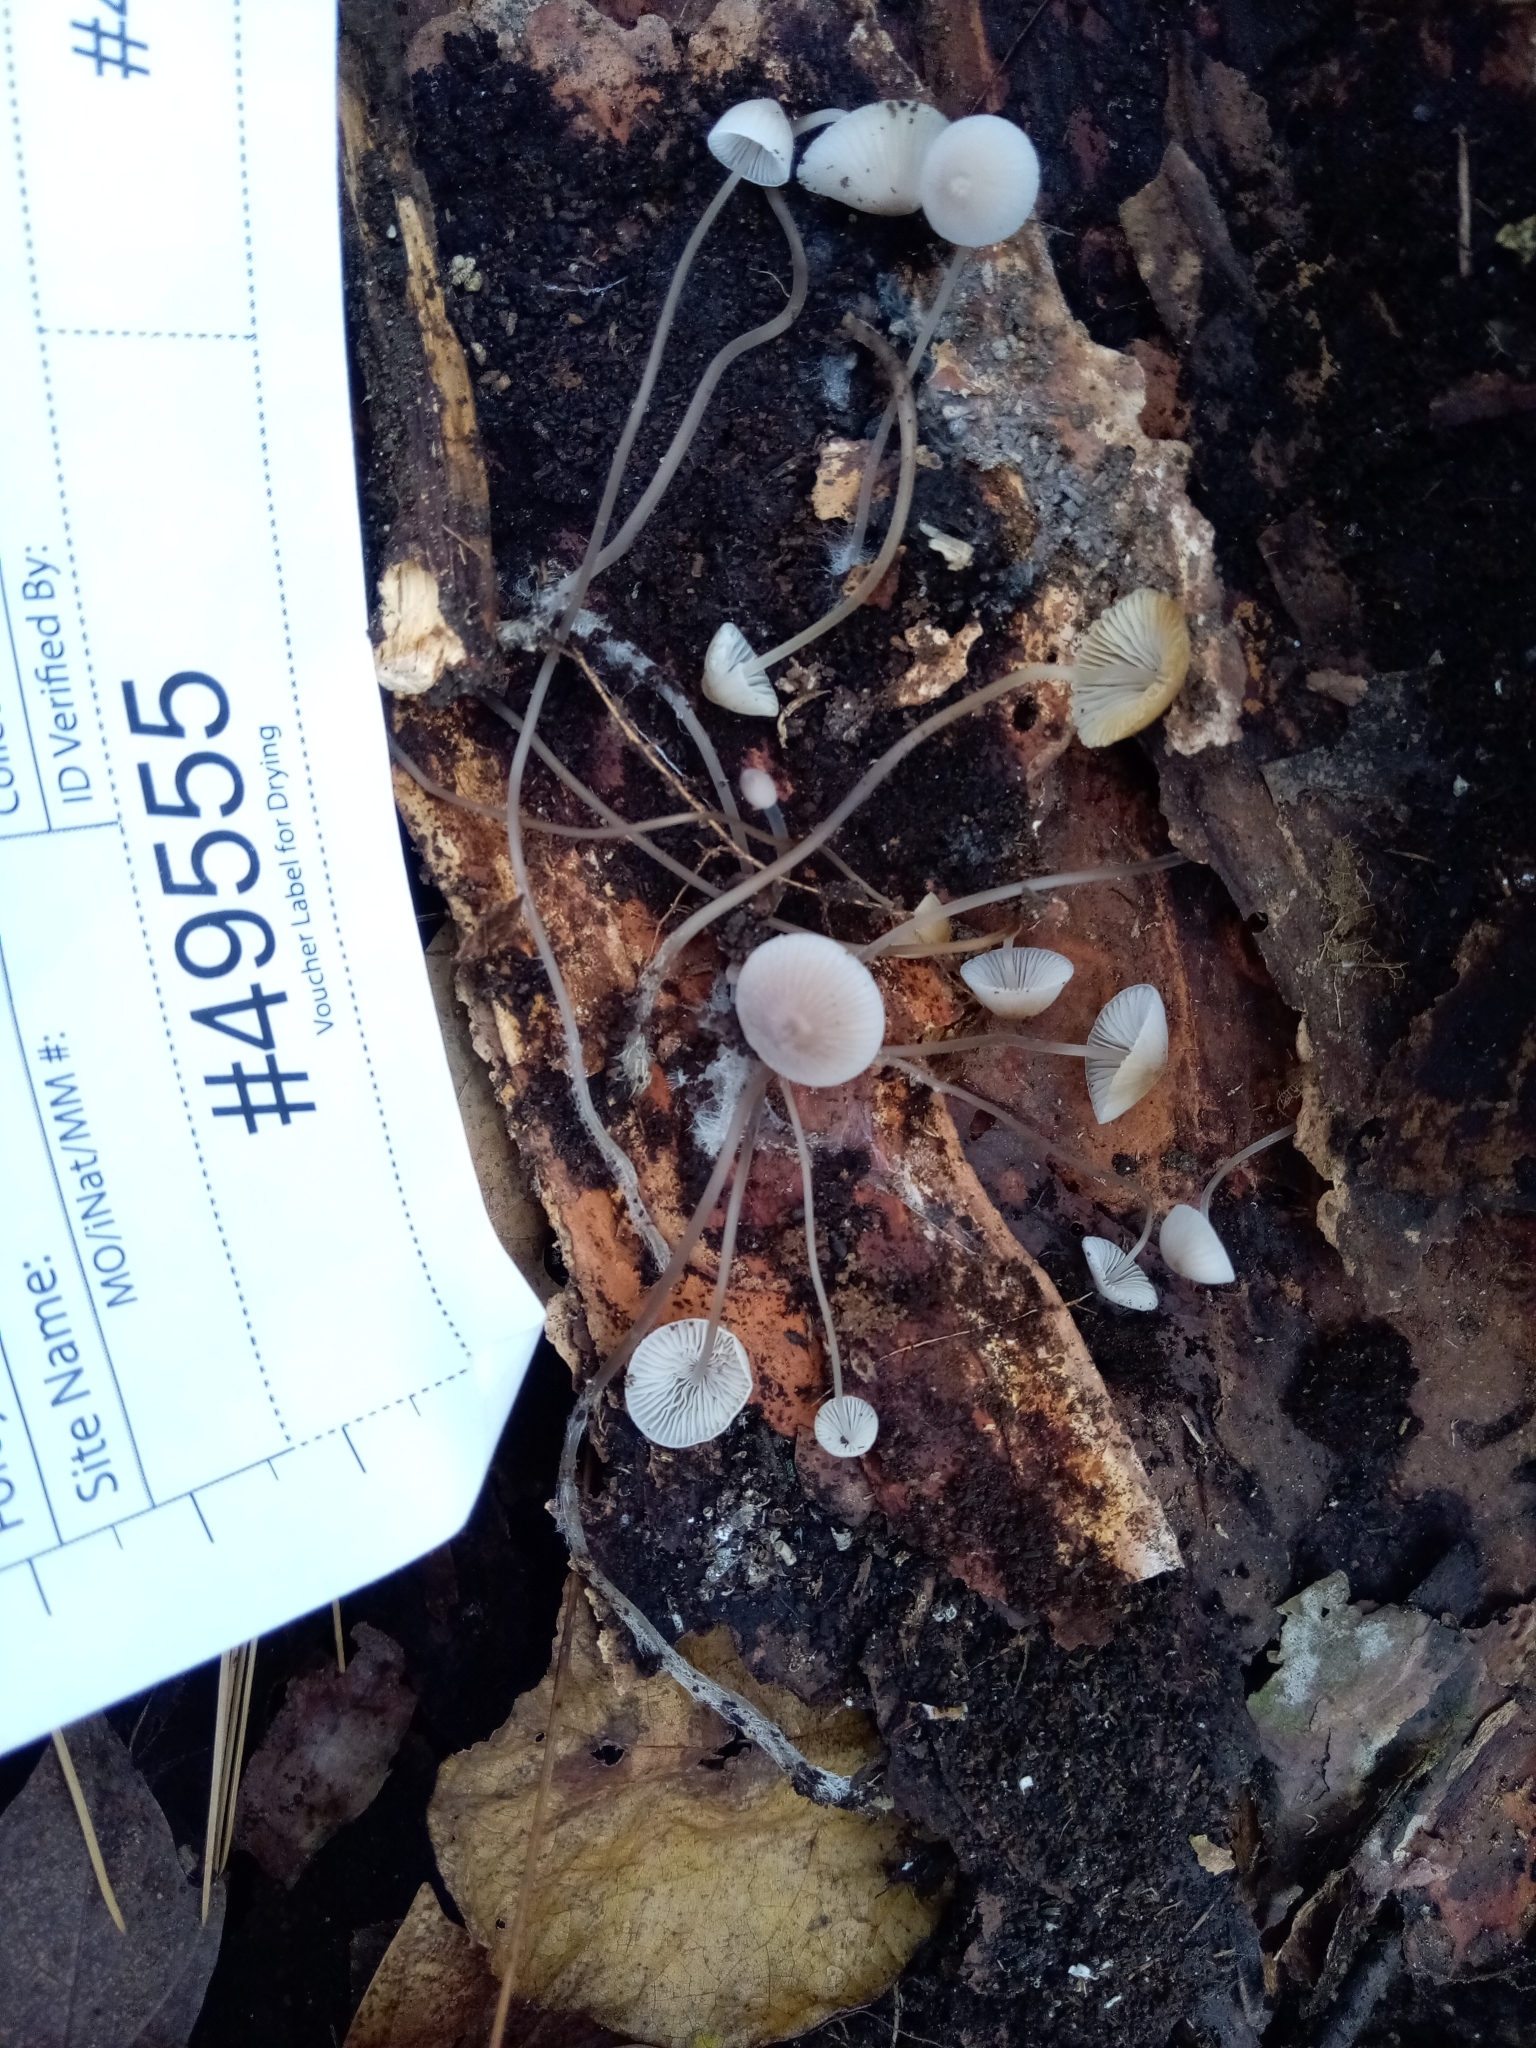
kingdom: Fungi
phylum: Basidiomycota
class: Agaricomycetes
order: Agaricales
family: Mycenaceae
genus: Mycena
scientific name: Mycena filopes
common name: Iodine bonnet
